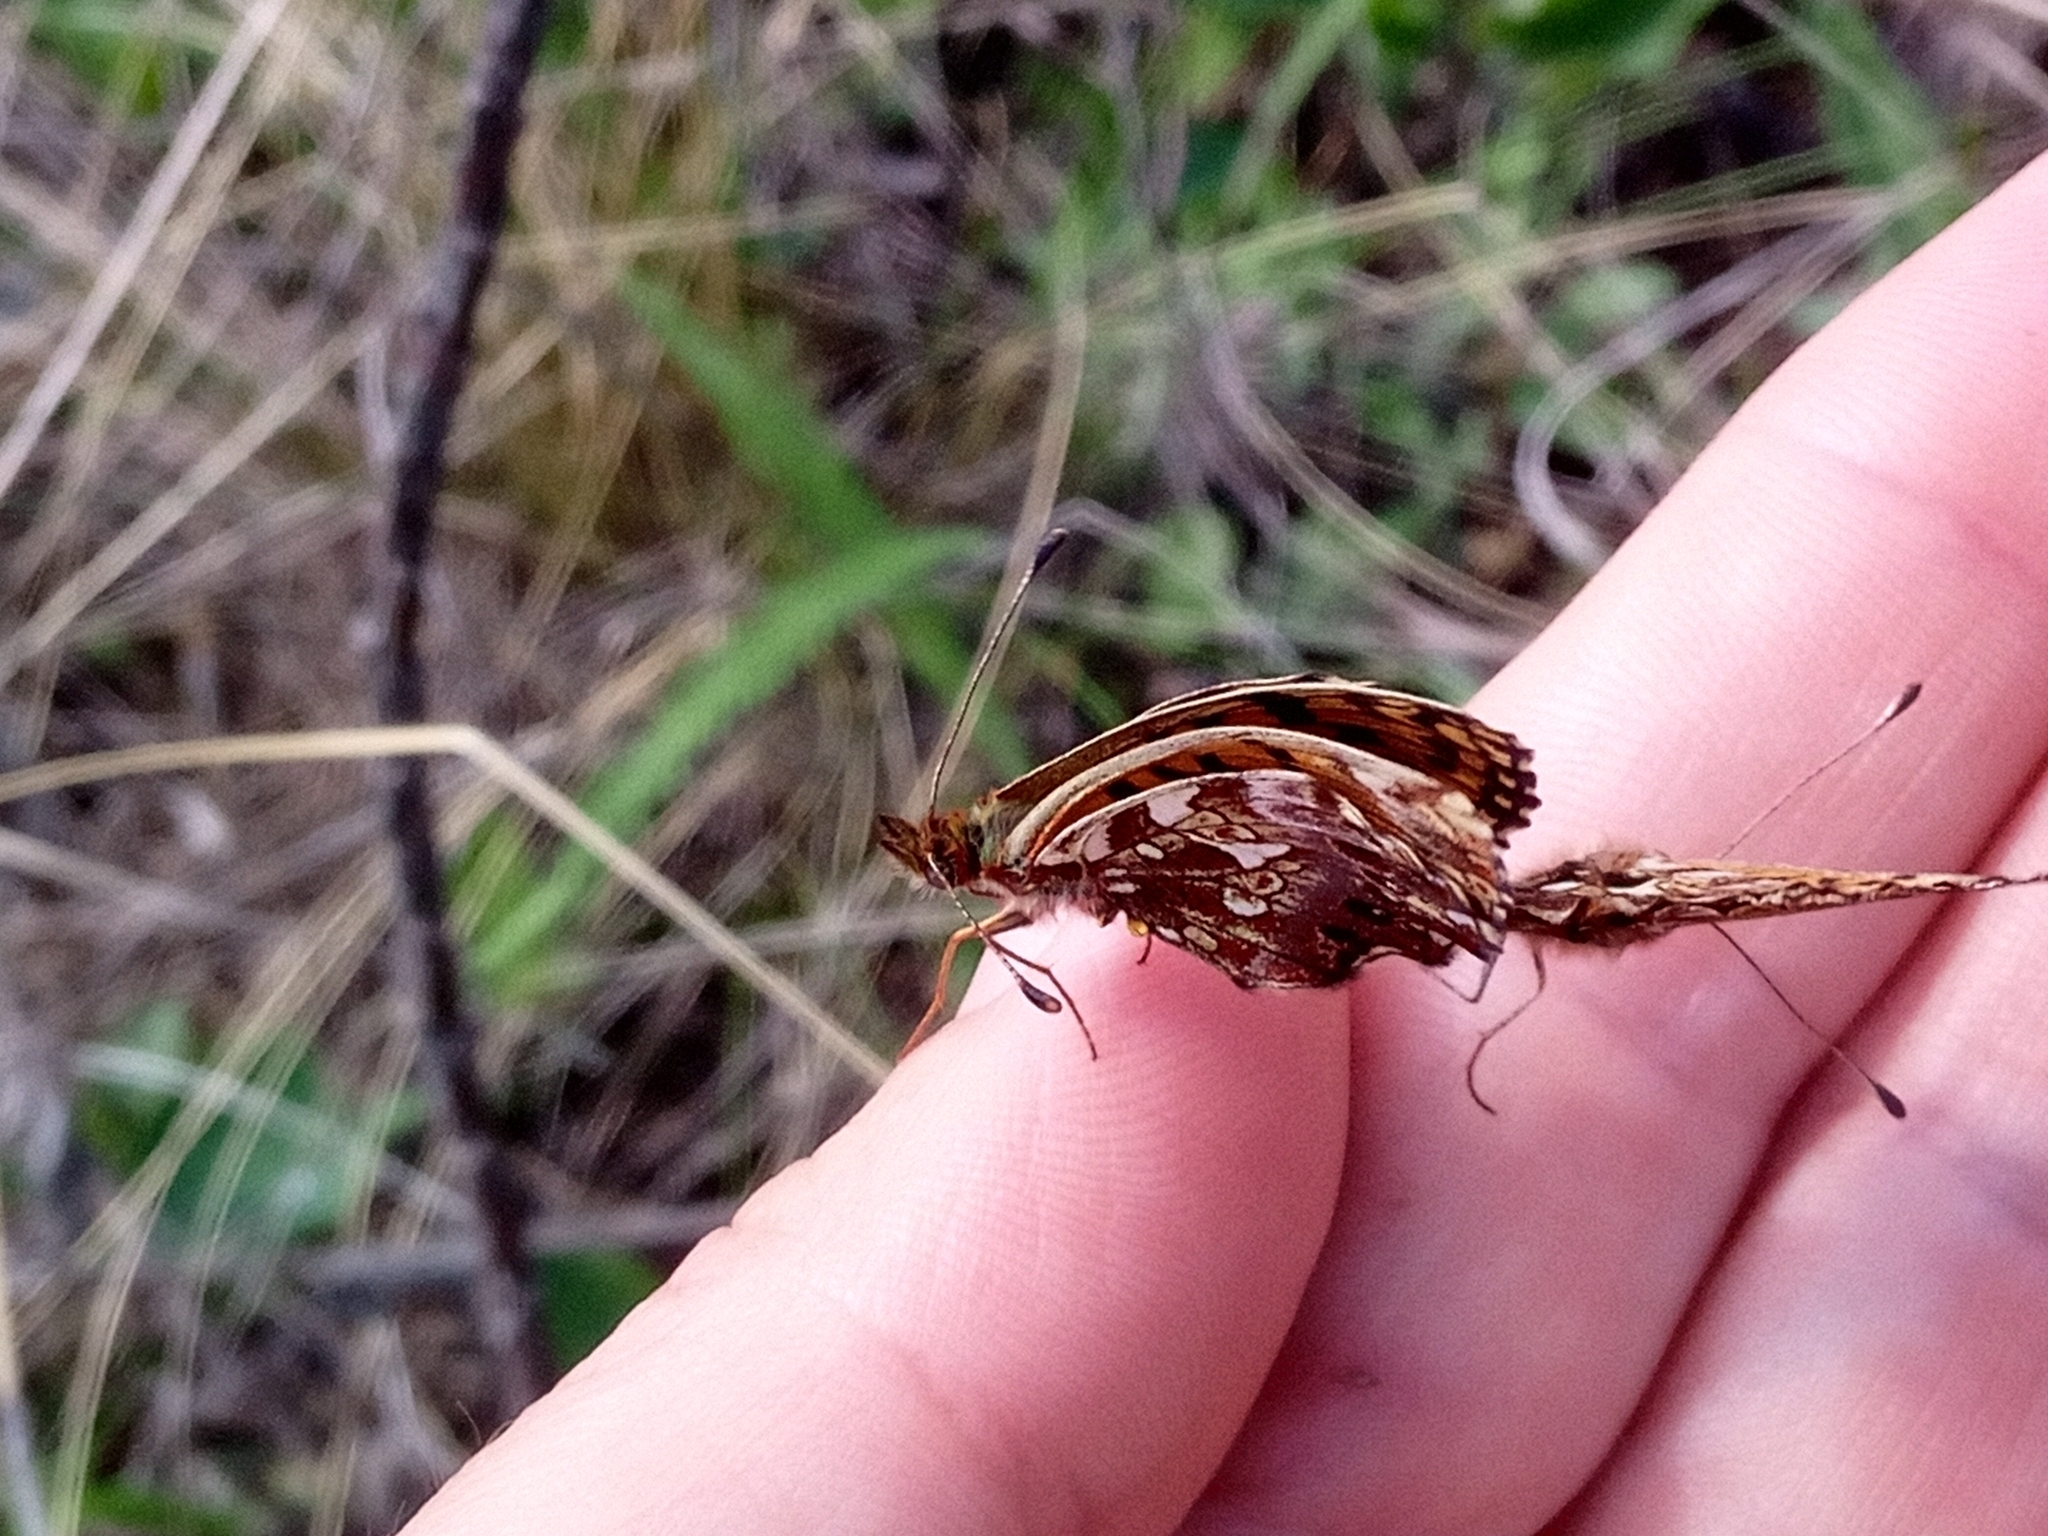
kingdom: Animalia
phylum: Arthropoda
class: Insecta
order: Lepidoptera
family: Nymphalidae
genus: Boloria
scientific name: Boloria dia
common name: Weaver's fritillary
